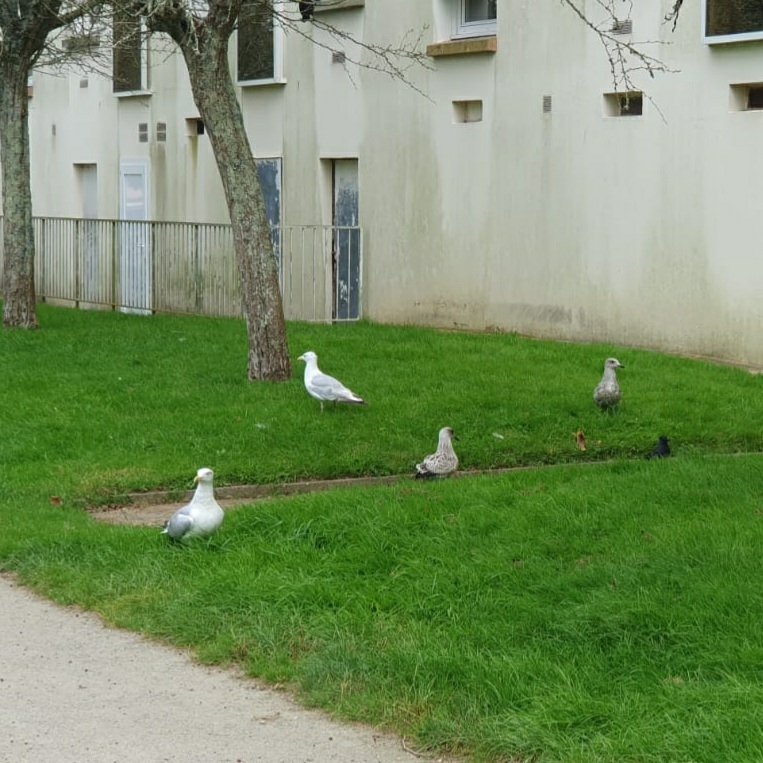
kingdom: Animalia
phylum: Chordata
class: Aves
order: Charadriiformes
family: Laridae
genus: Larus
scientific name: Larus argentatus
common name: Herring gull
